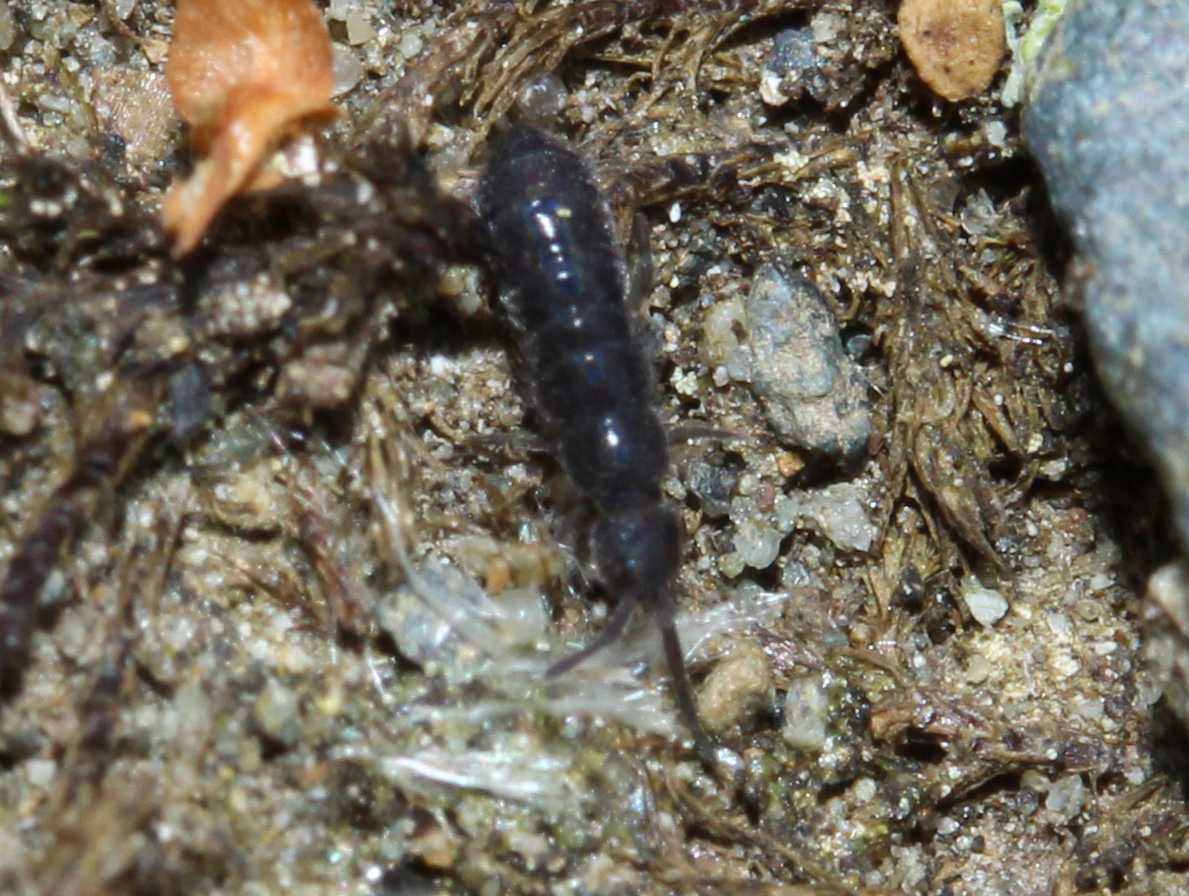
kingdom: Animalia
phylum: Arthropoda
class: Collembola
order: Entomobryomorpha
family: Isotomidae
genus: Isotoma
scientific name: Isotoma
